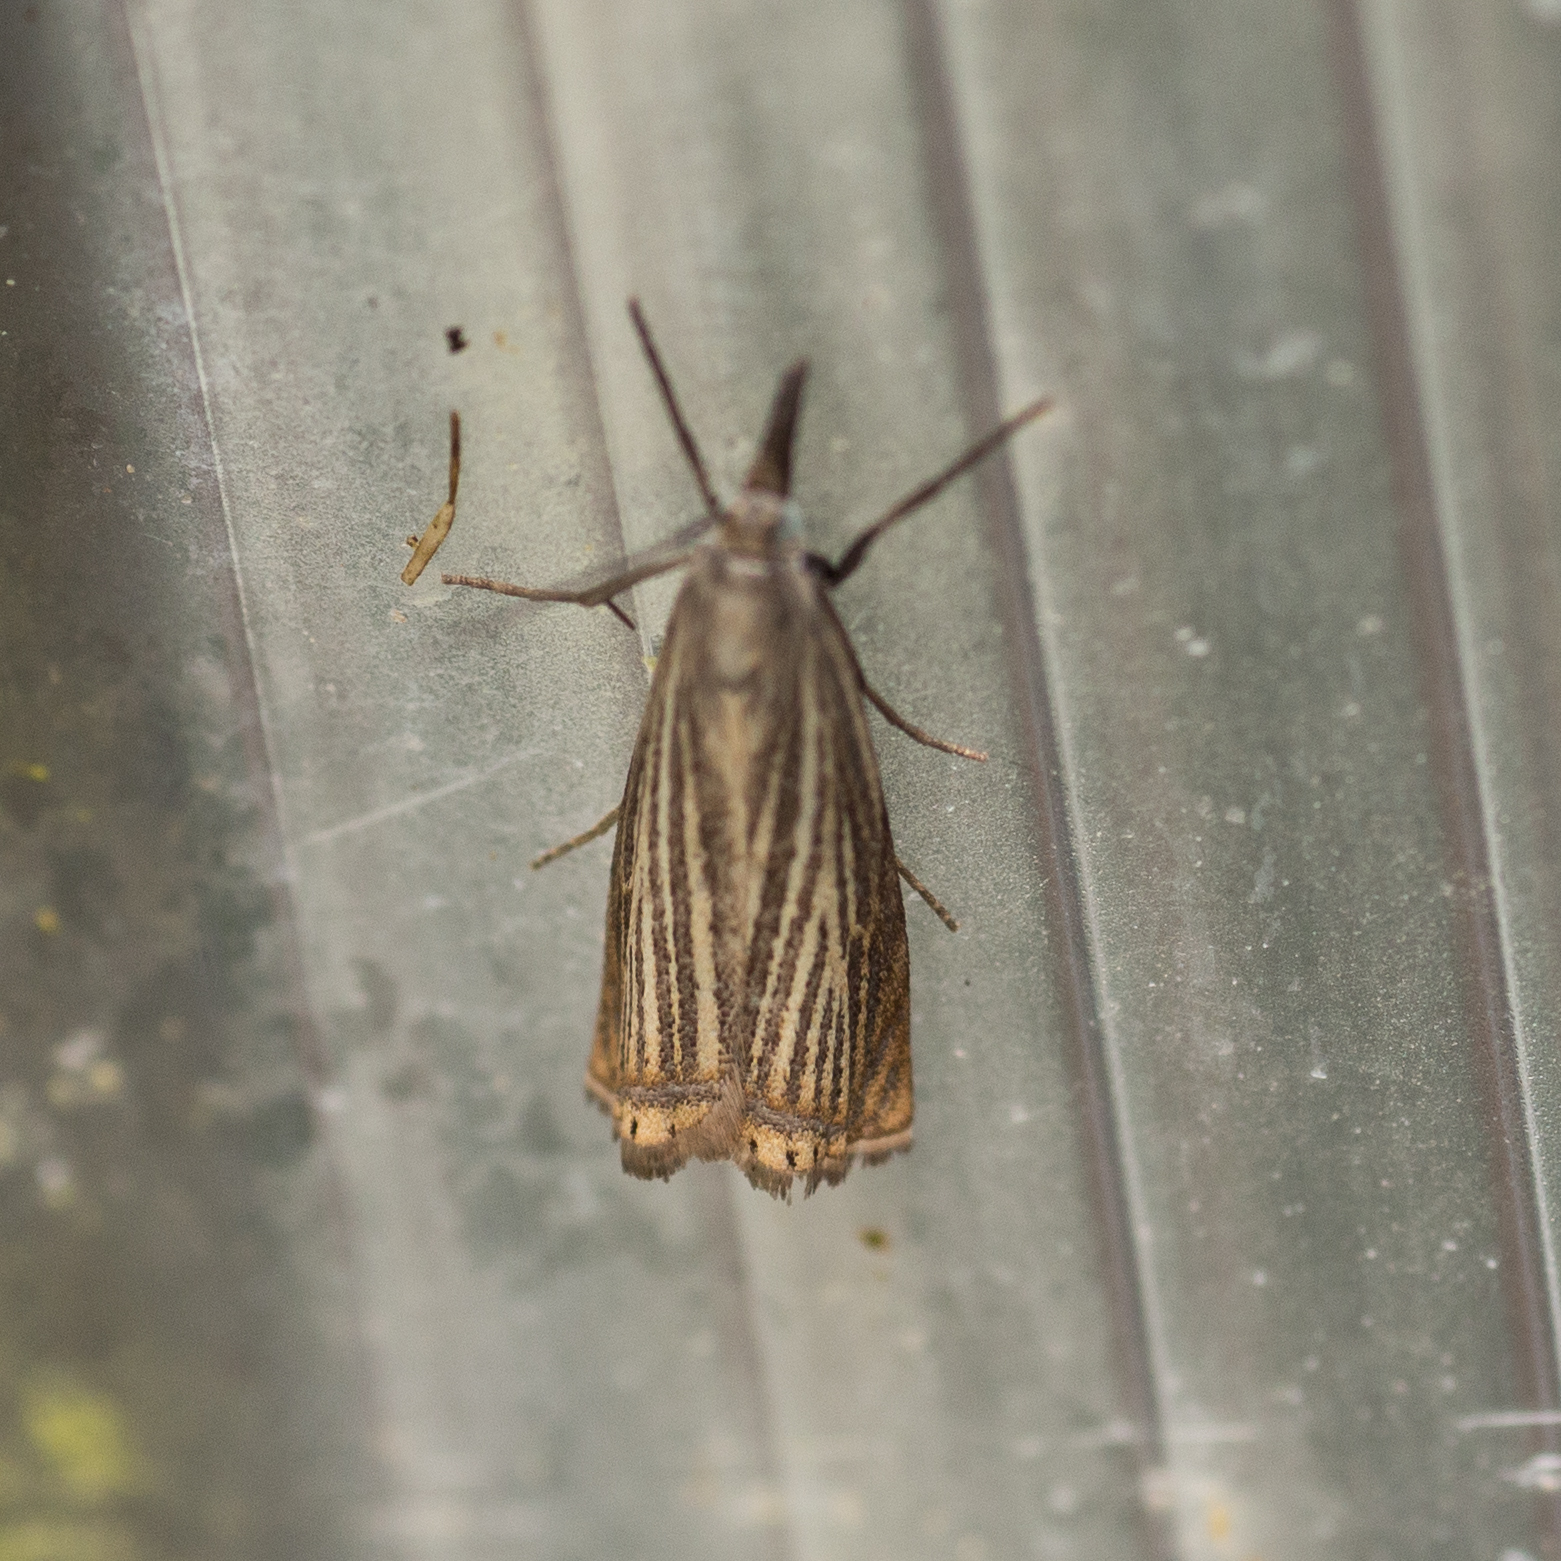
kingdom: Animalia
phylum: Arthropoda
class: Insecta
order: Lepidoptera
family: Crambidae
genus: Chrysoteuchia
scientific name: Chrysoteuchia culmella
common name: Garden grass-veneer
